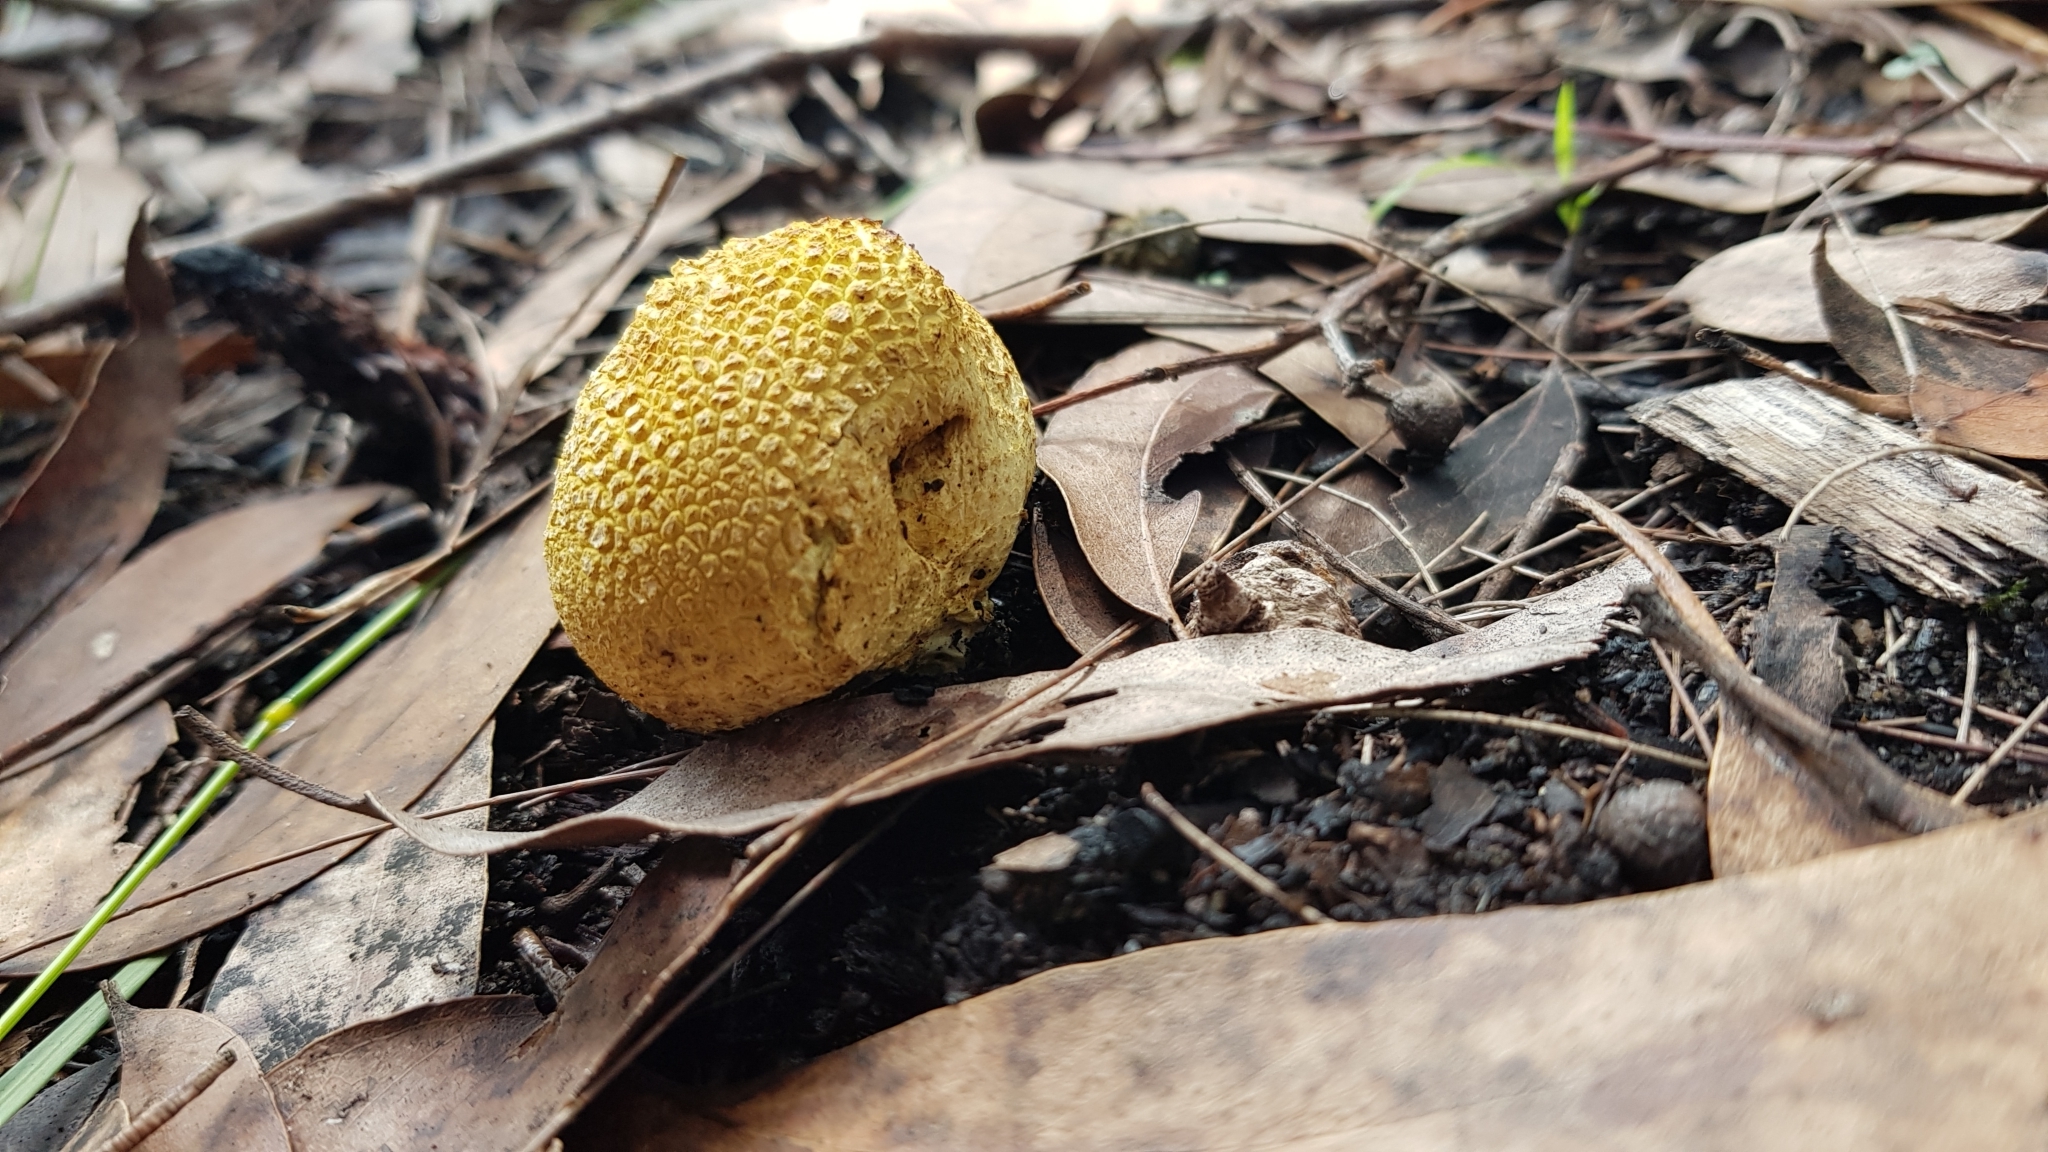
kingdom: Fungi
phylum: Basidiomycota
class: Agaricomycetes
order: Boletales
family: Sclerodermataceae
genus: Scleroderma
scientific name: Scleroderma cepa
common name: Onion earthball
